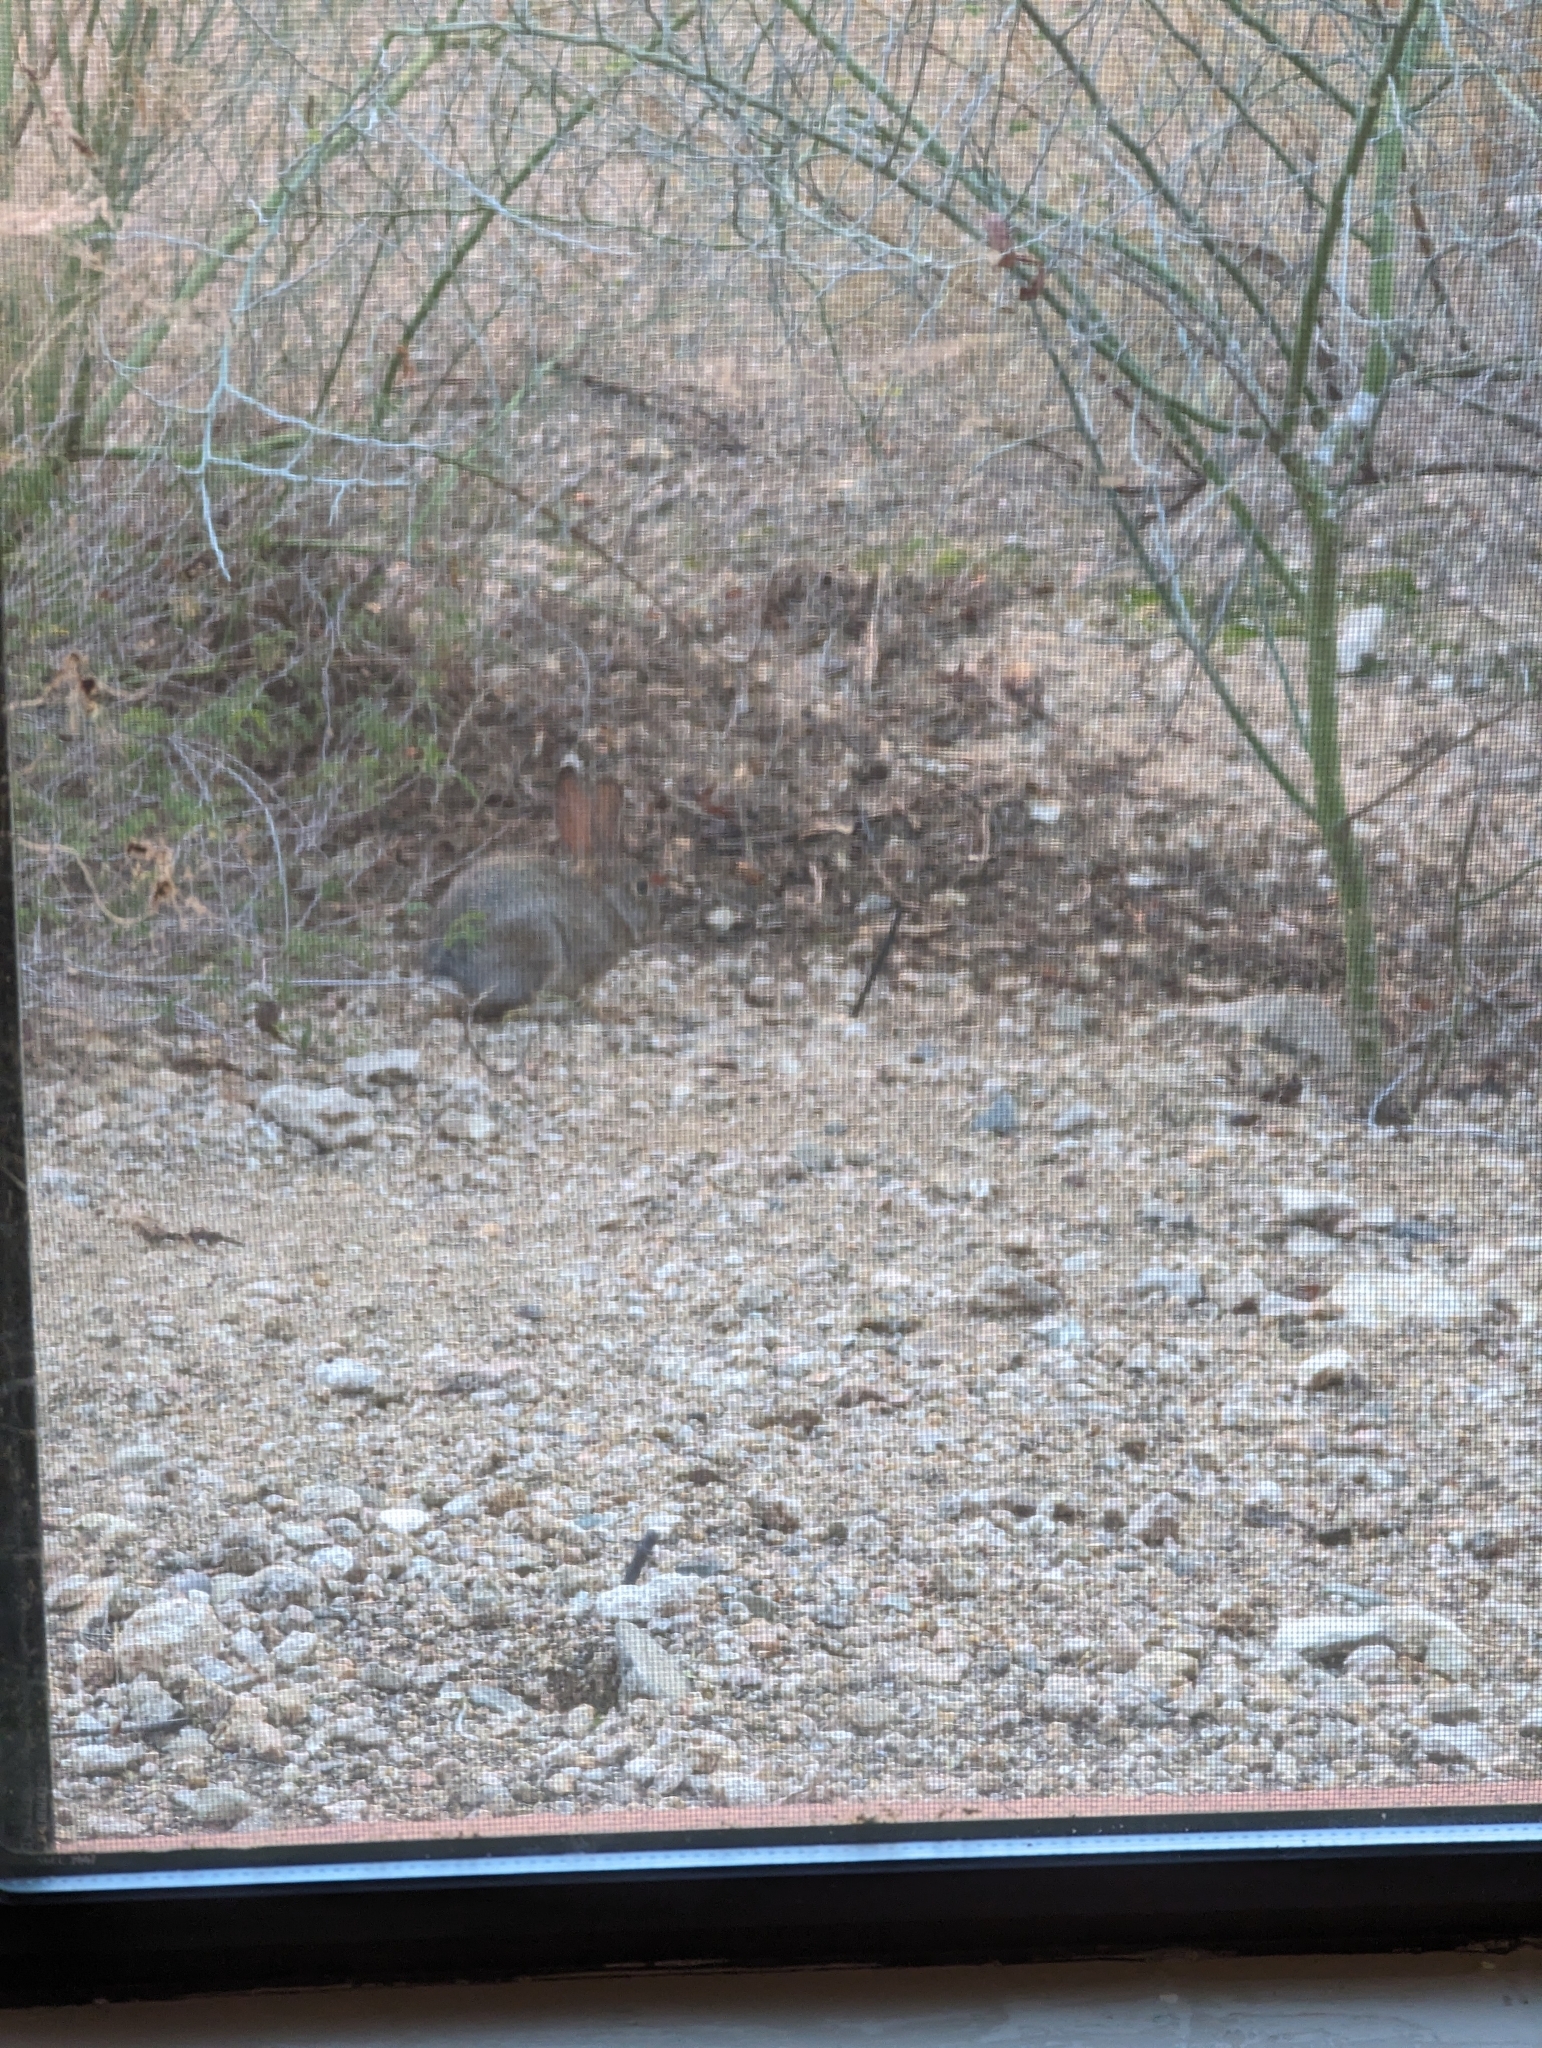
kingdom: Animalia
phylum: Chordata
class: Mammalia
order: Lagomorpha
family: Leporidae
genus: Sylvilagus
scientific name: Sylvilagus audubonii
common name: Desert cottontail
